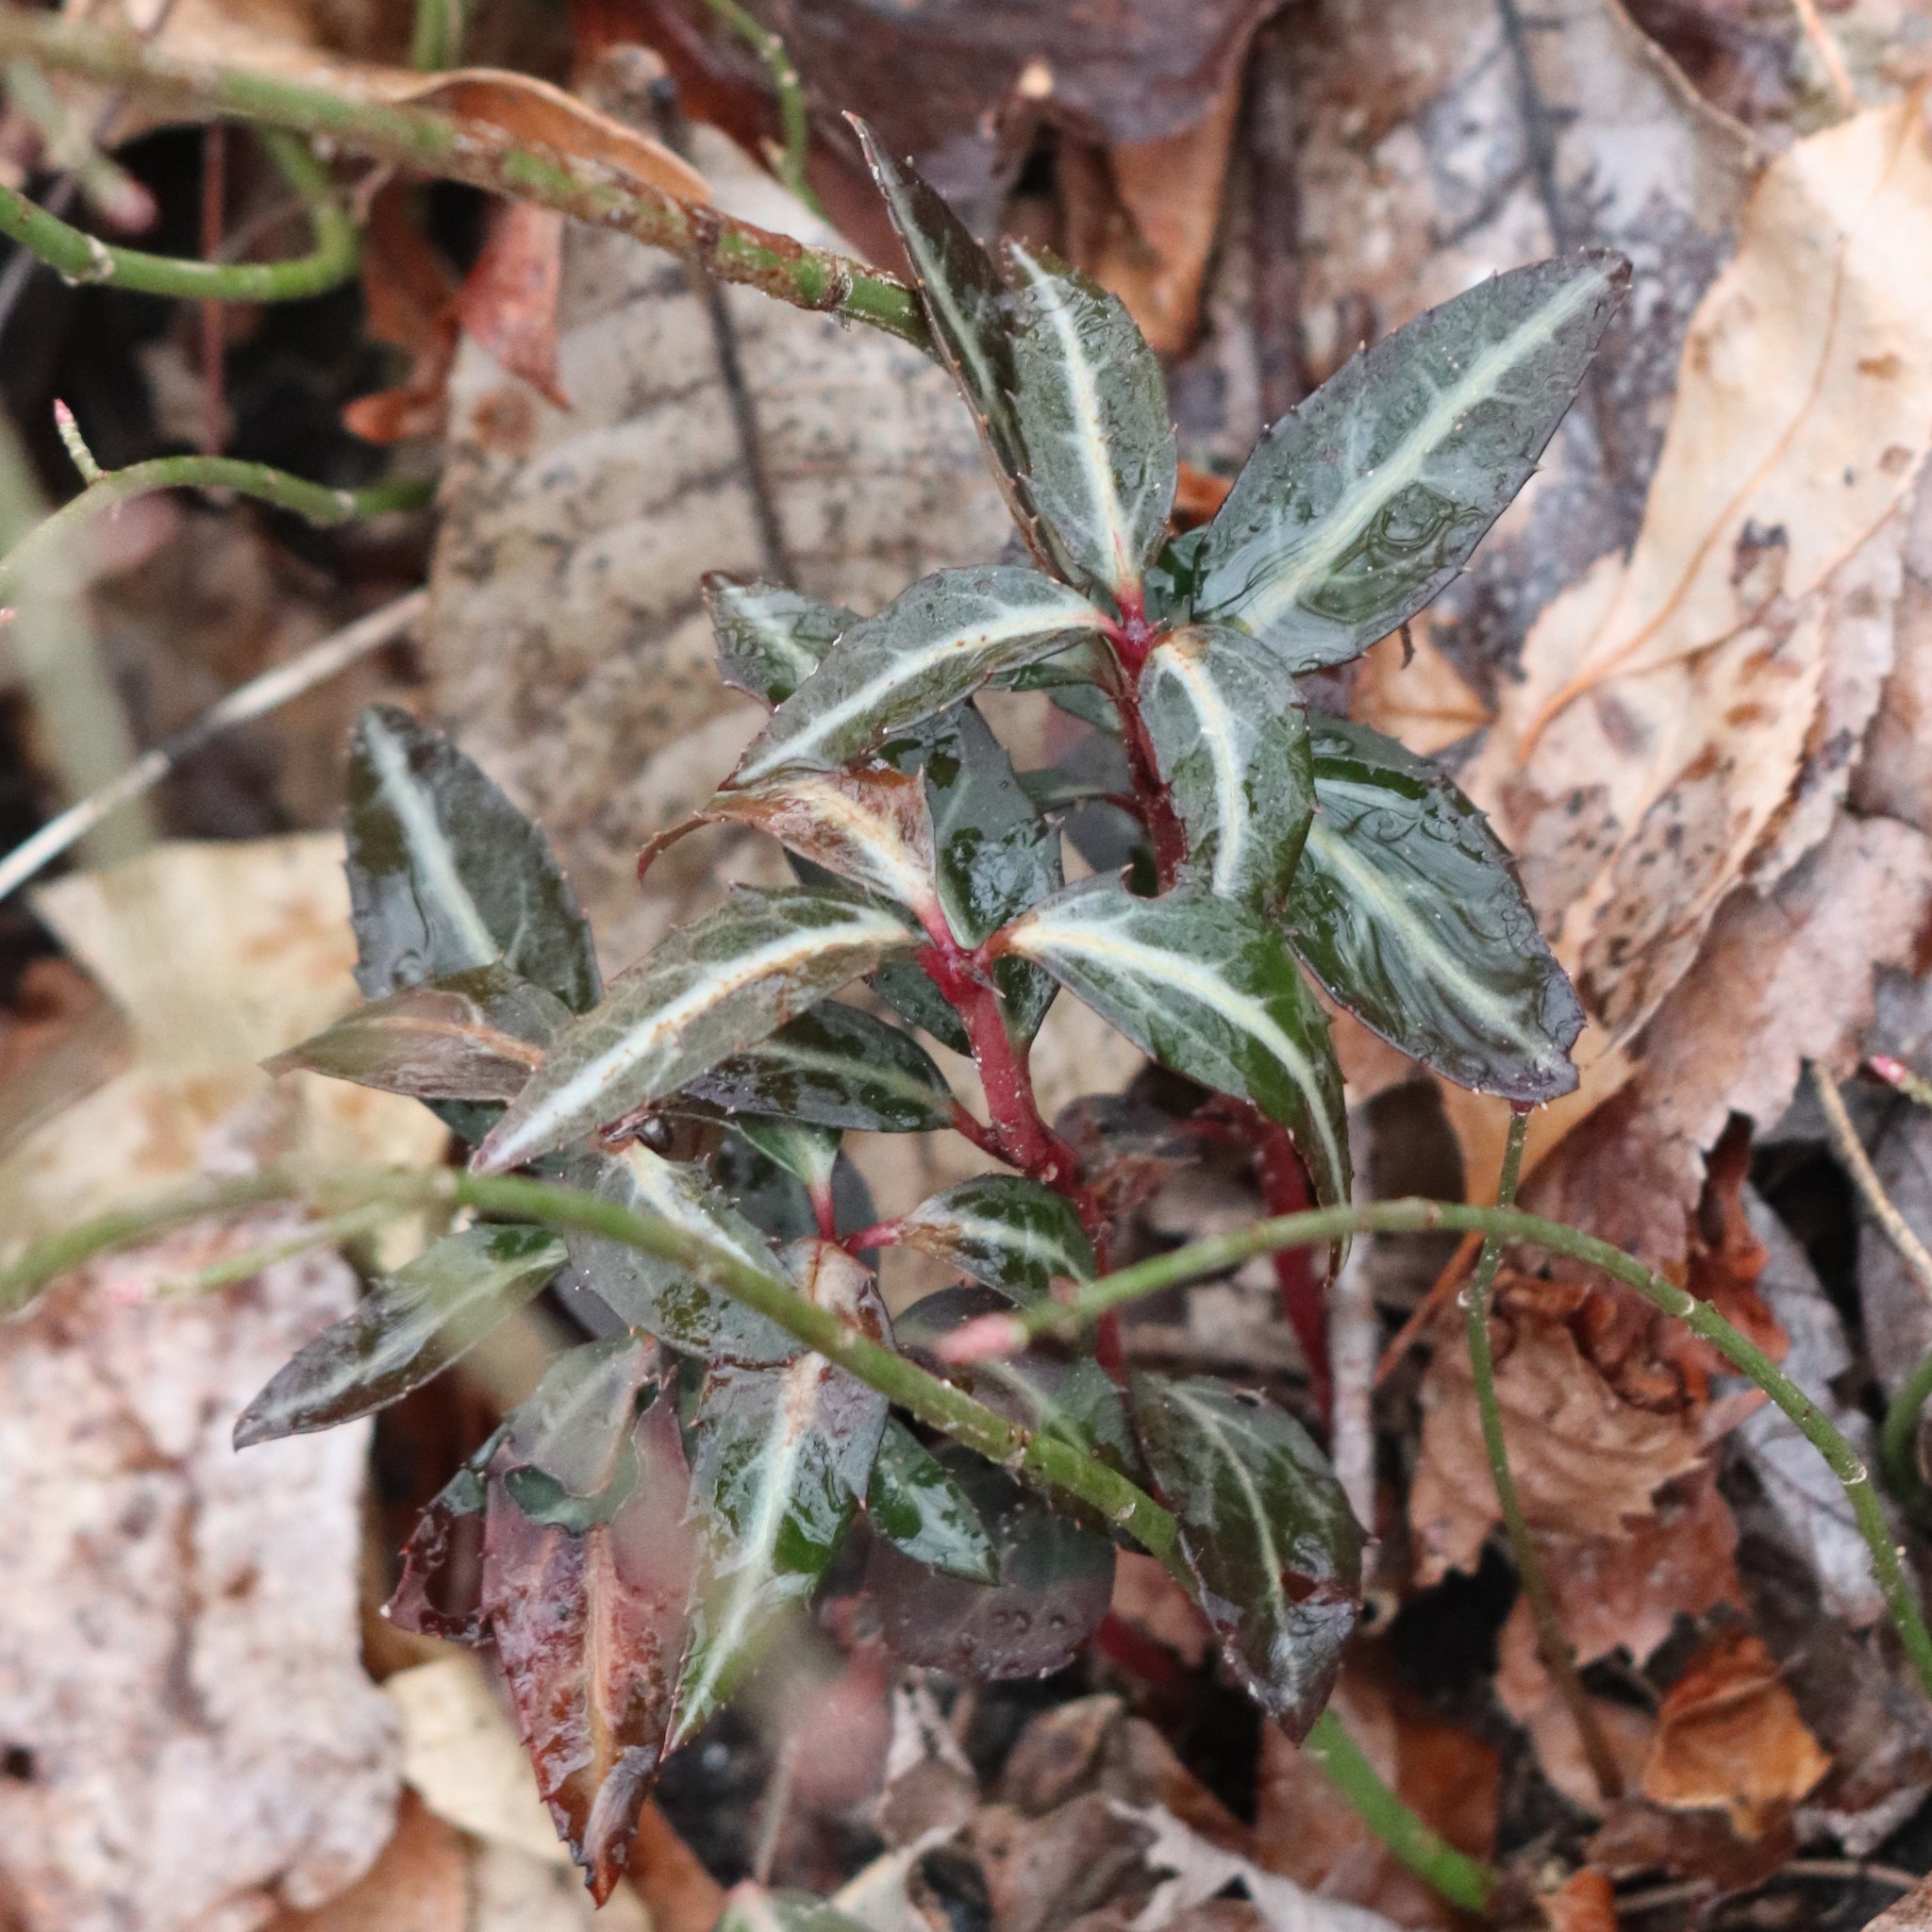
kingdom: Plantae
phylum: Tracheophyta
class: Magnoliopsida
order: Ericales
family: Ericaceae
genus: Chimaphila
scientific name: Chimaphila maculata
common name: Spotted pipsissewa
